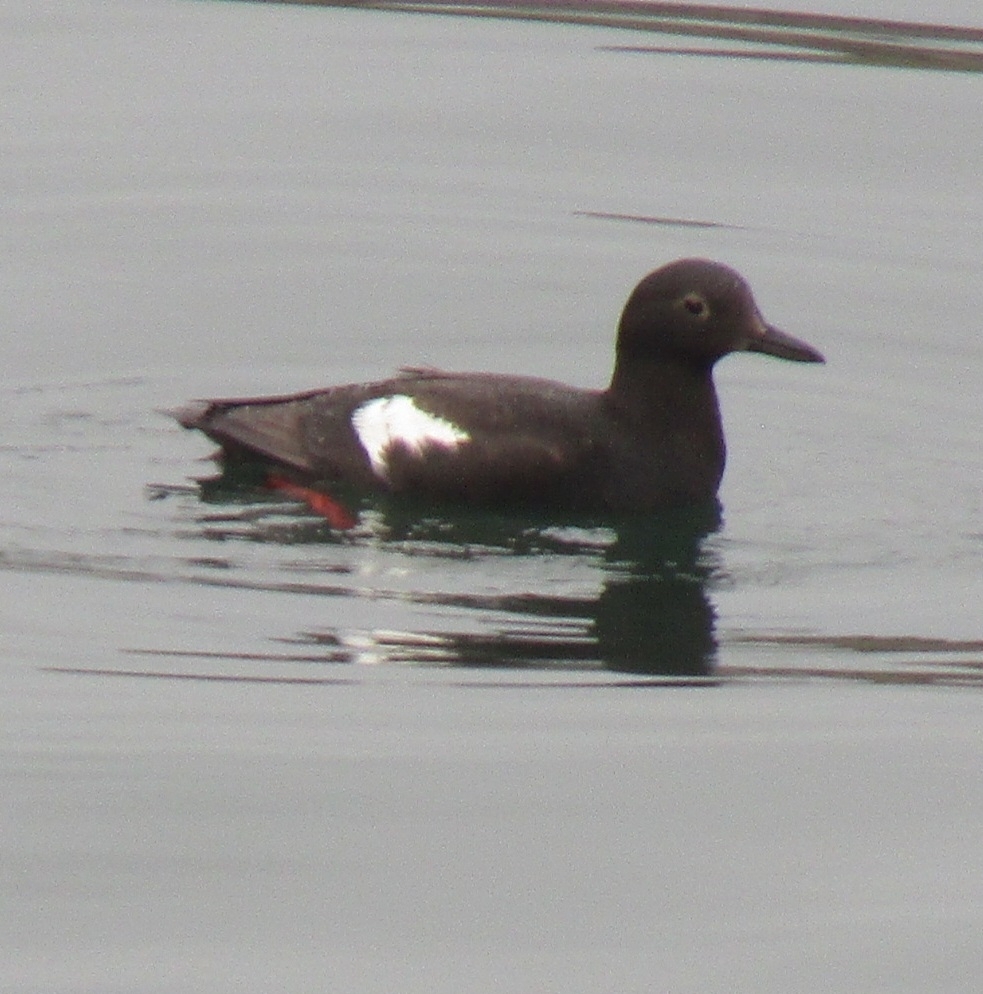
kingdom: Animalia
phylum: Chordata
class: Aves
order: Charadriiformes
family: Alcidae
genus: Cepphus
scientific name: Cepphus columba
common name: Pigeon guillemot
